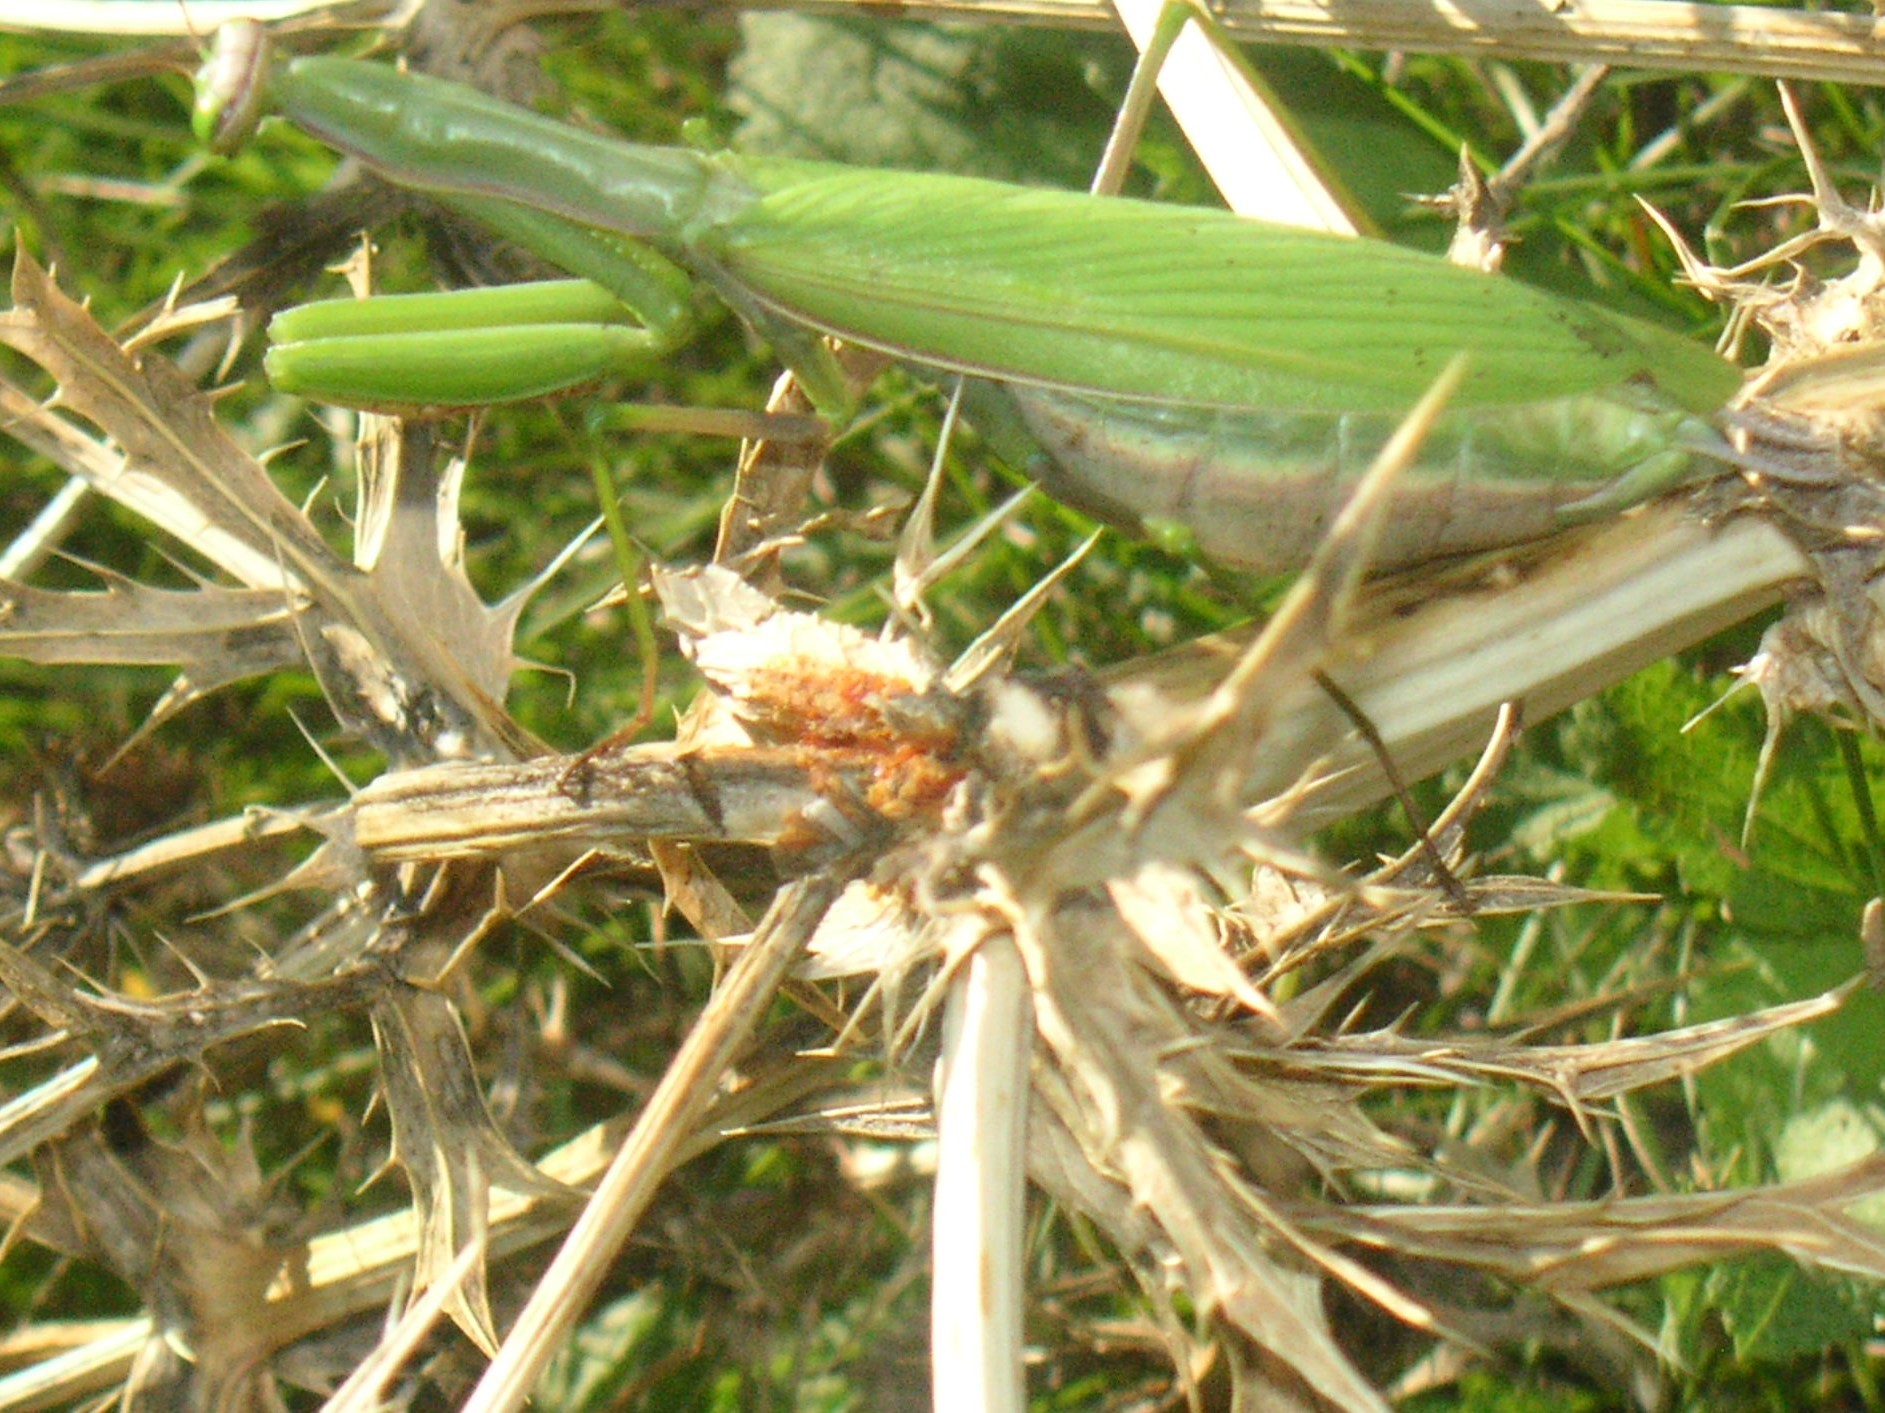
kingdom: Animalia
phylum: Arthropoda
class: Insecta
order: Mantodea
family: Mantidae
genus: Mantis
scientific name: Mantis religiosa
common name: Praying mantis
